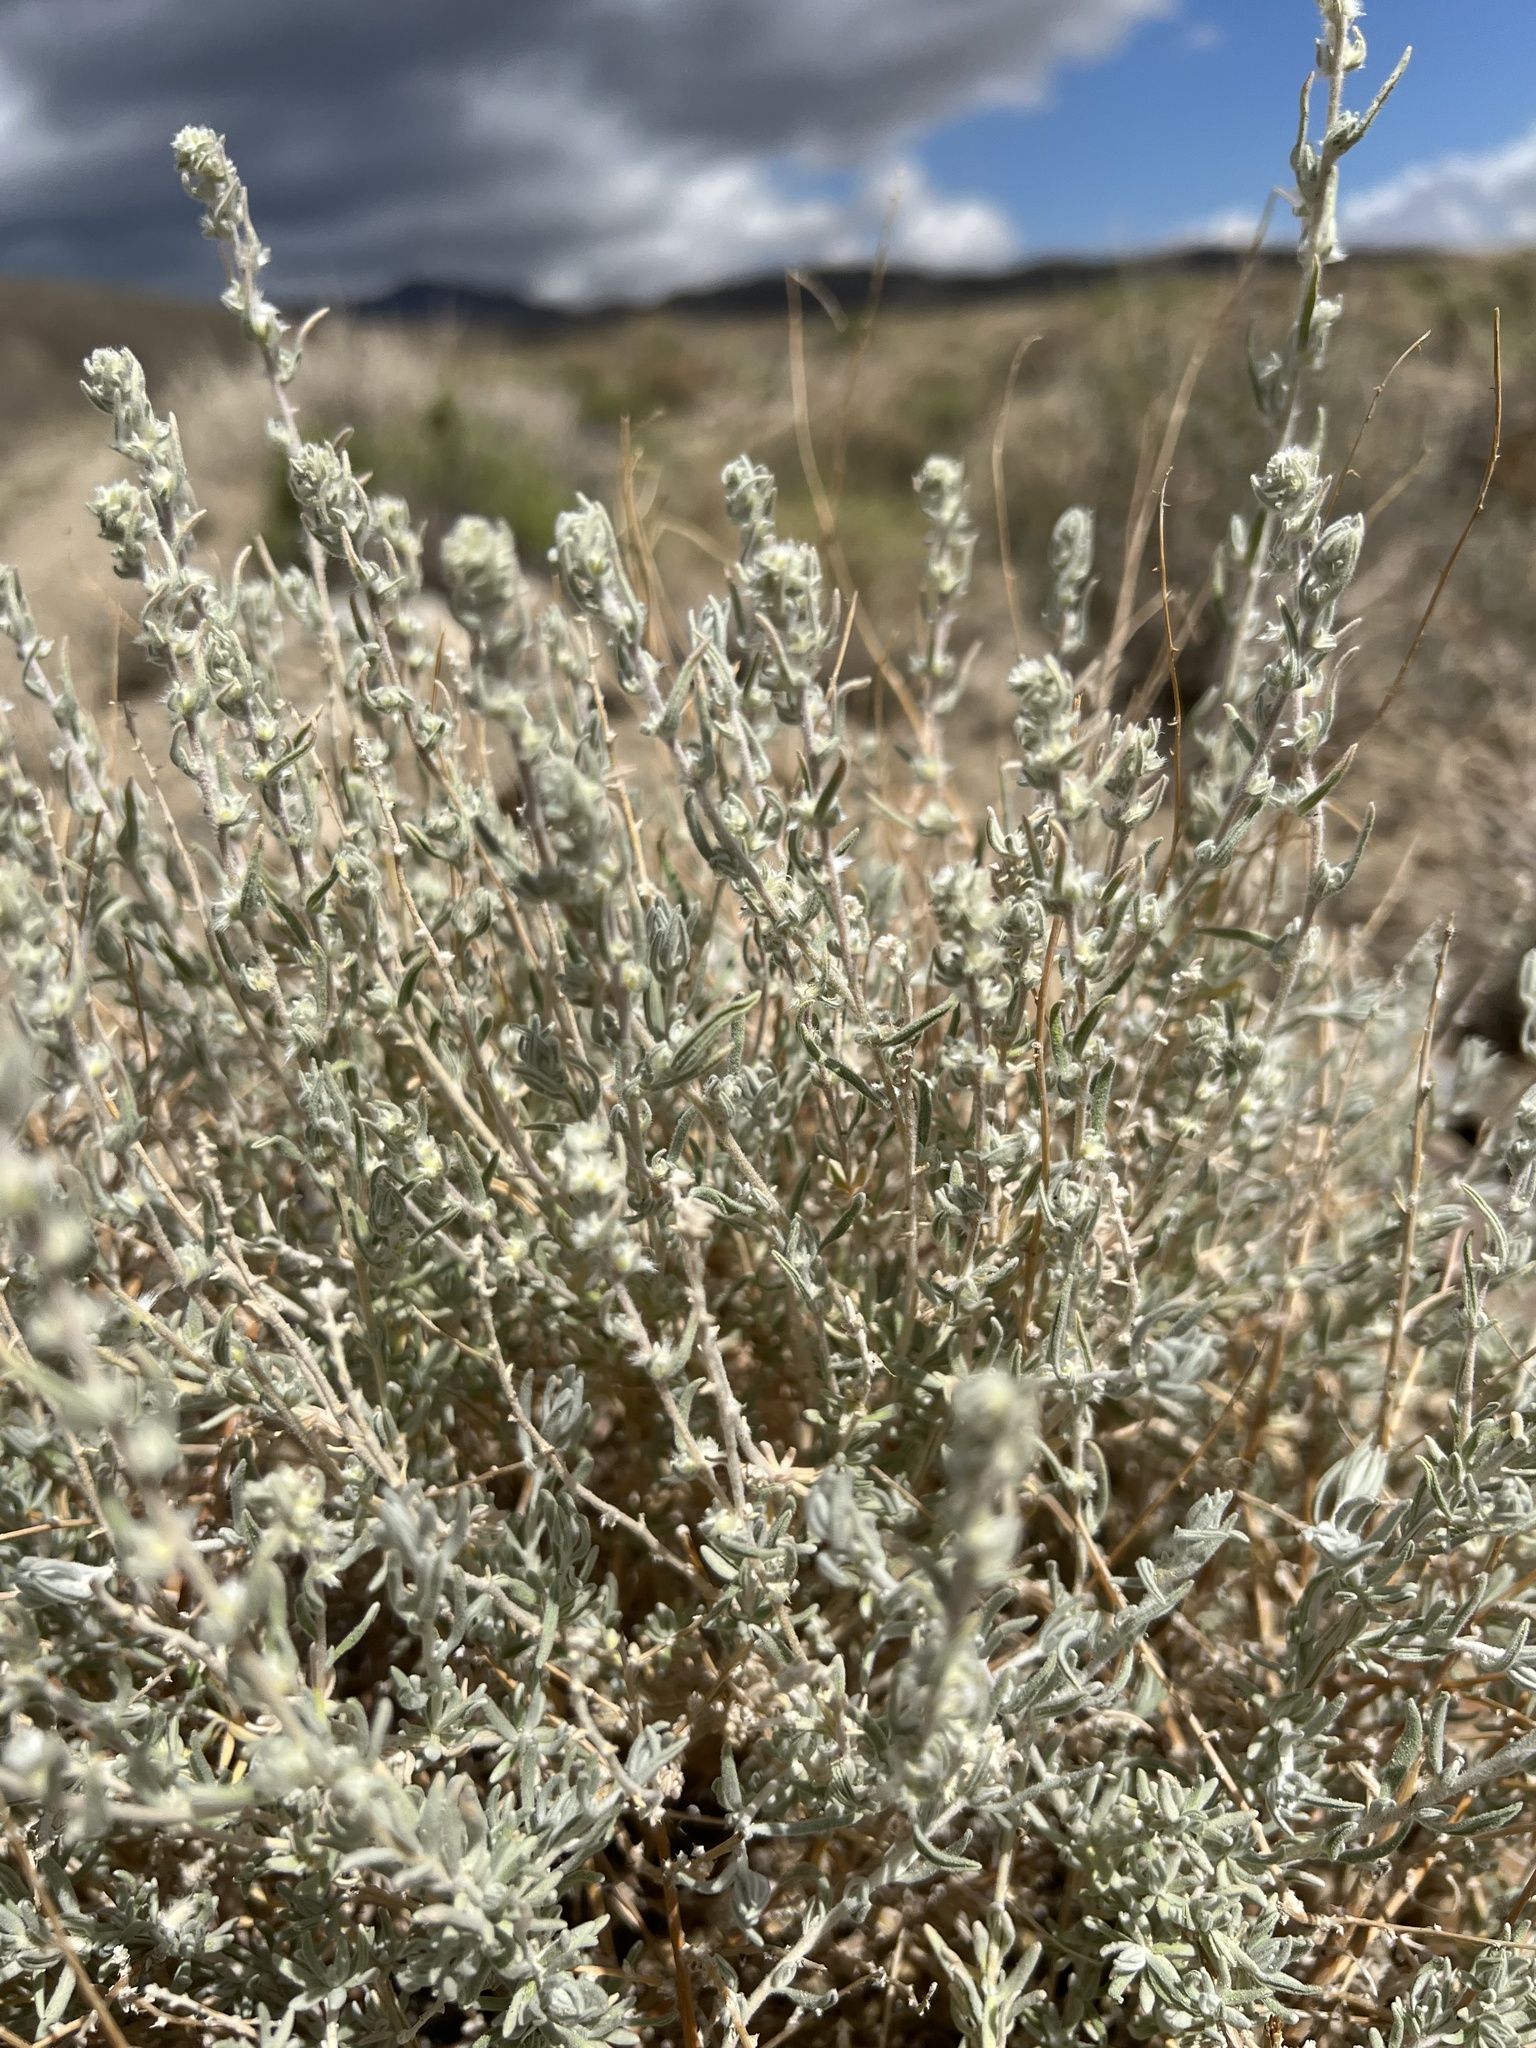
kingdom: Plantae
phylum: Tracheophyta
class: Magnoliopsida
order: Caryophyllales
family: Amaranthaceae
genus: Krascheninnikovia
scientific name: Krascheninnikovia lanata
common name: Winterfat
